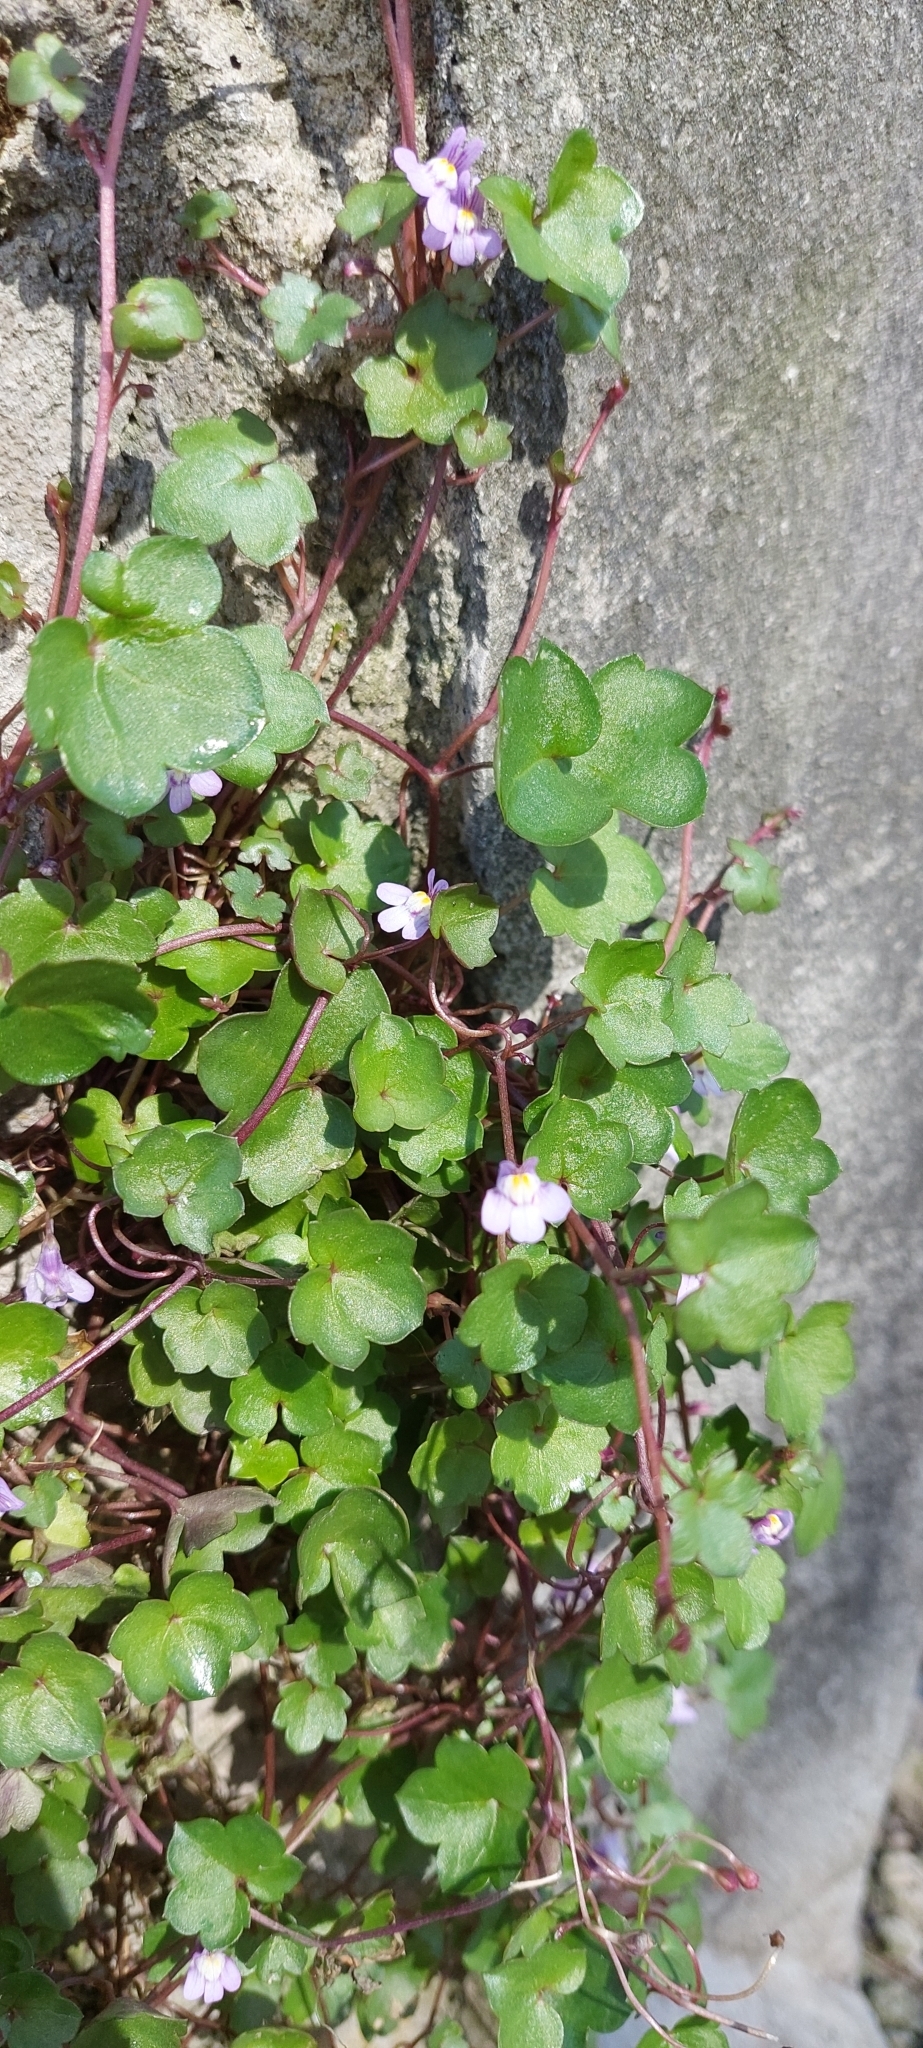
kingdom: Plantae
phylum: Tracheophyta
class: Magnoliopsida
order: Lamiales
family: Plantaginaceae
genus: Cymbalaria
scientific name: Cymbalaria muralis
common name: Ivy-leaved toadflax
